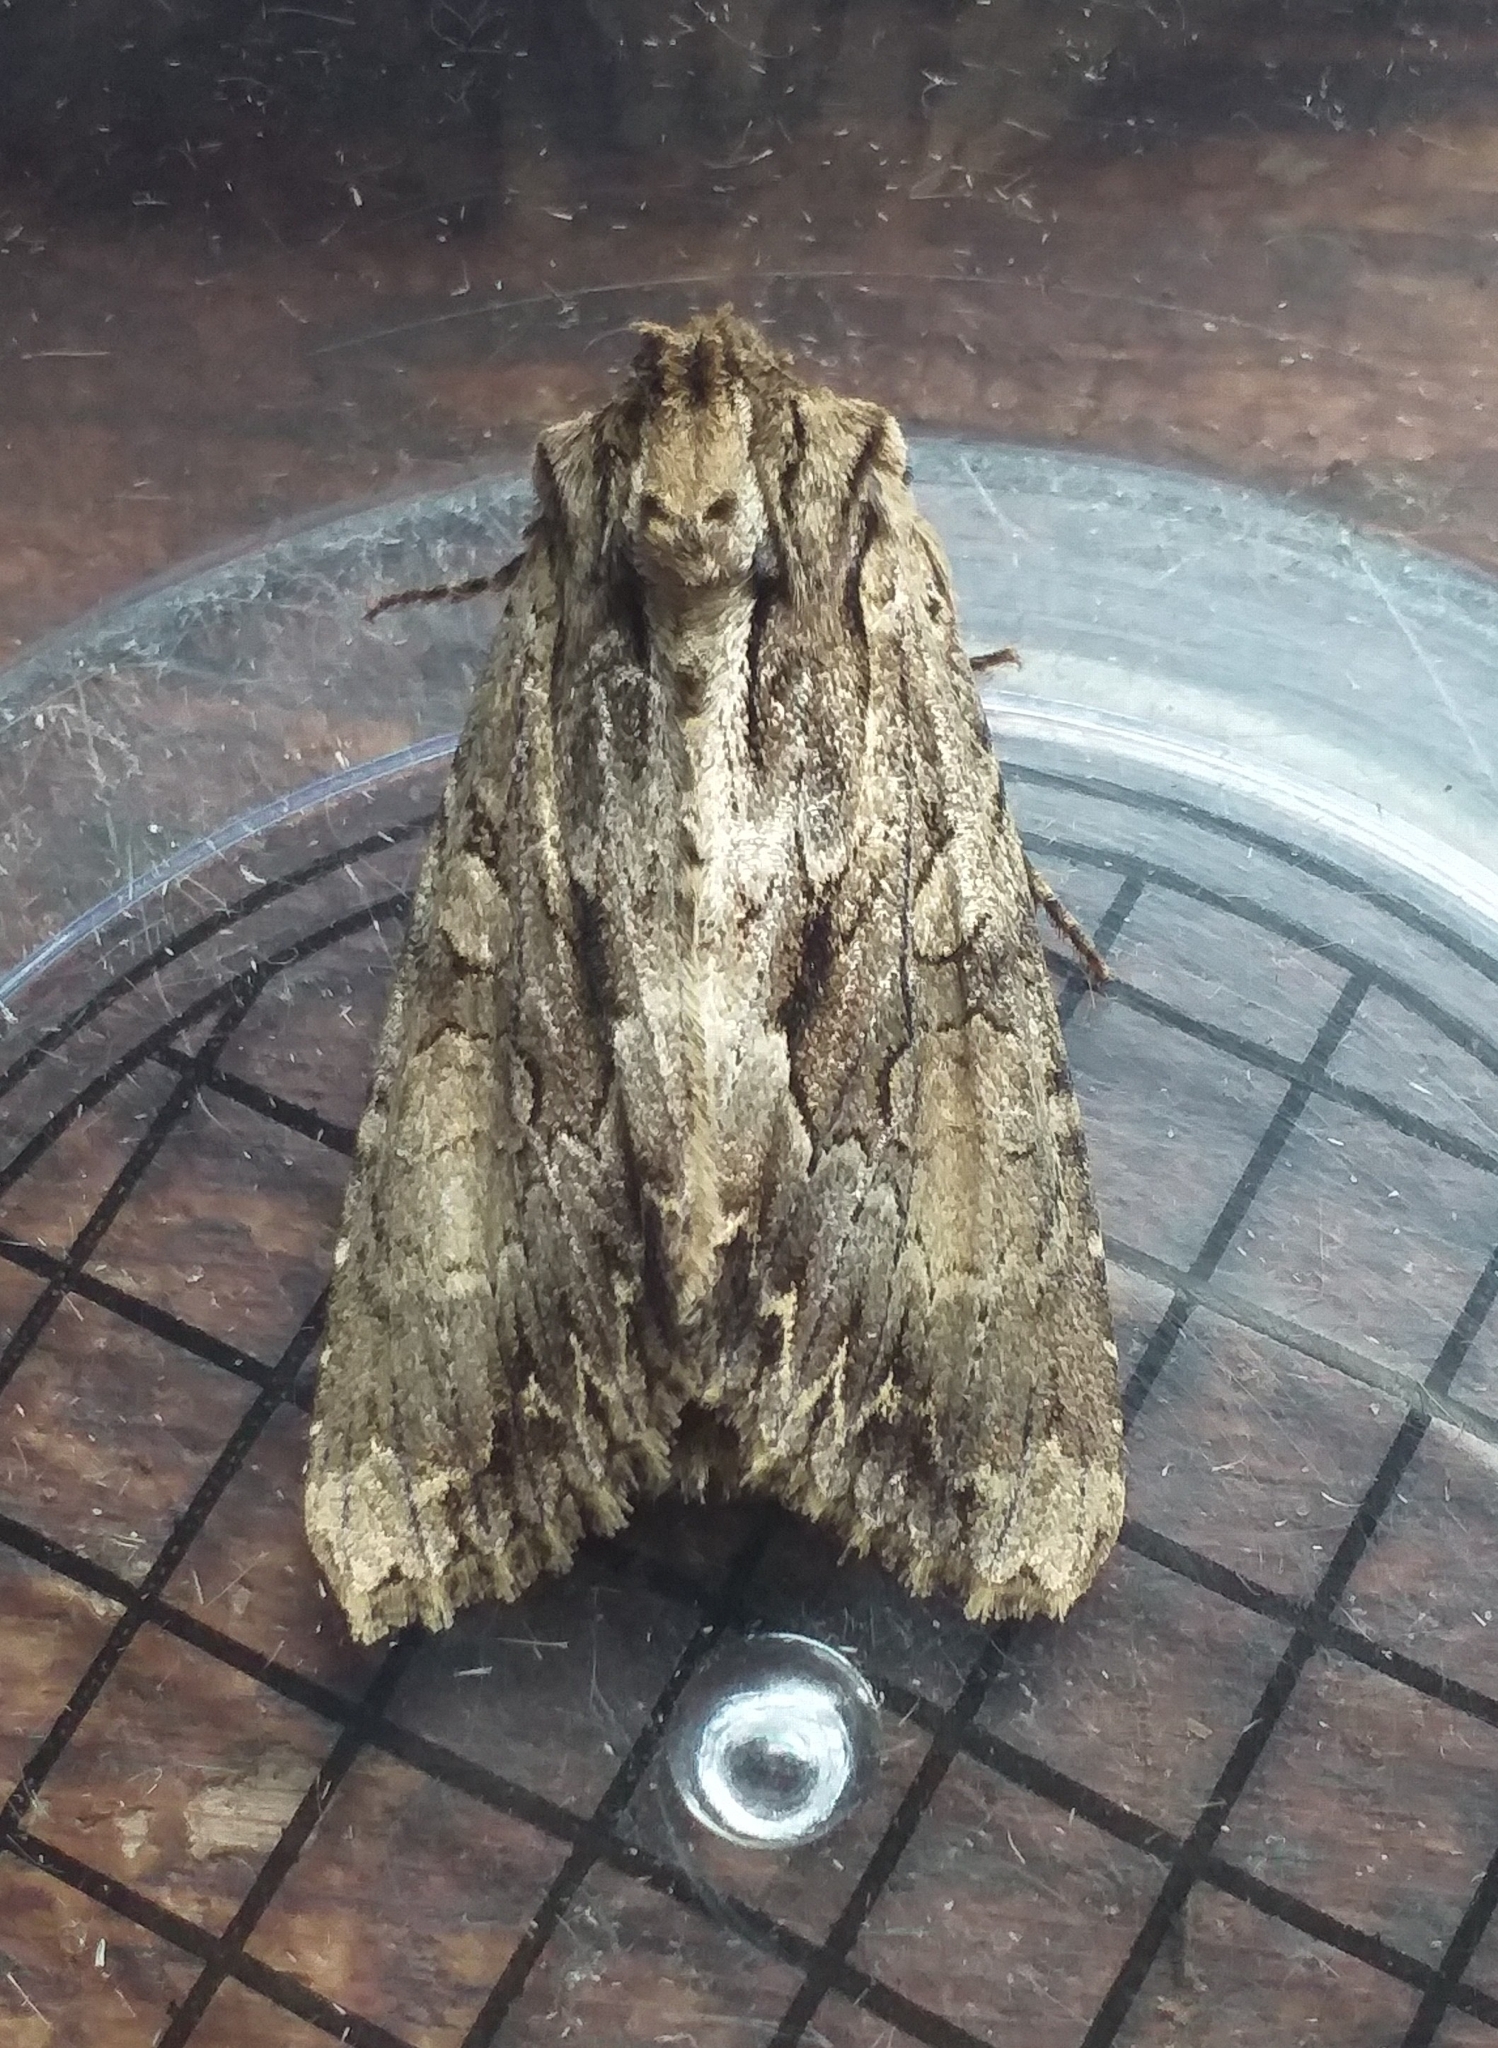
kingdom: Animalia
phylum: Arthropoda
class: Insecta
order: Lepidoptera
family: Noctuidae
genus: Apamea
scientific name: Apamea monoglypha
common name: Dark arches
